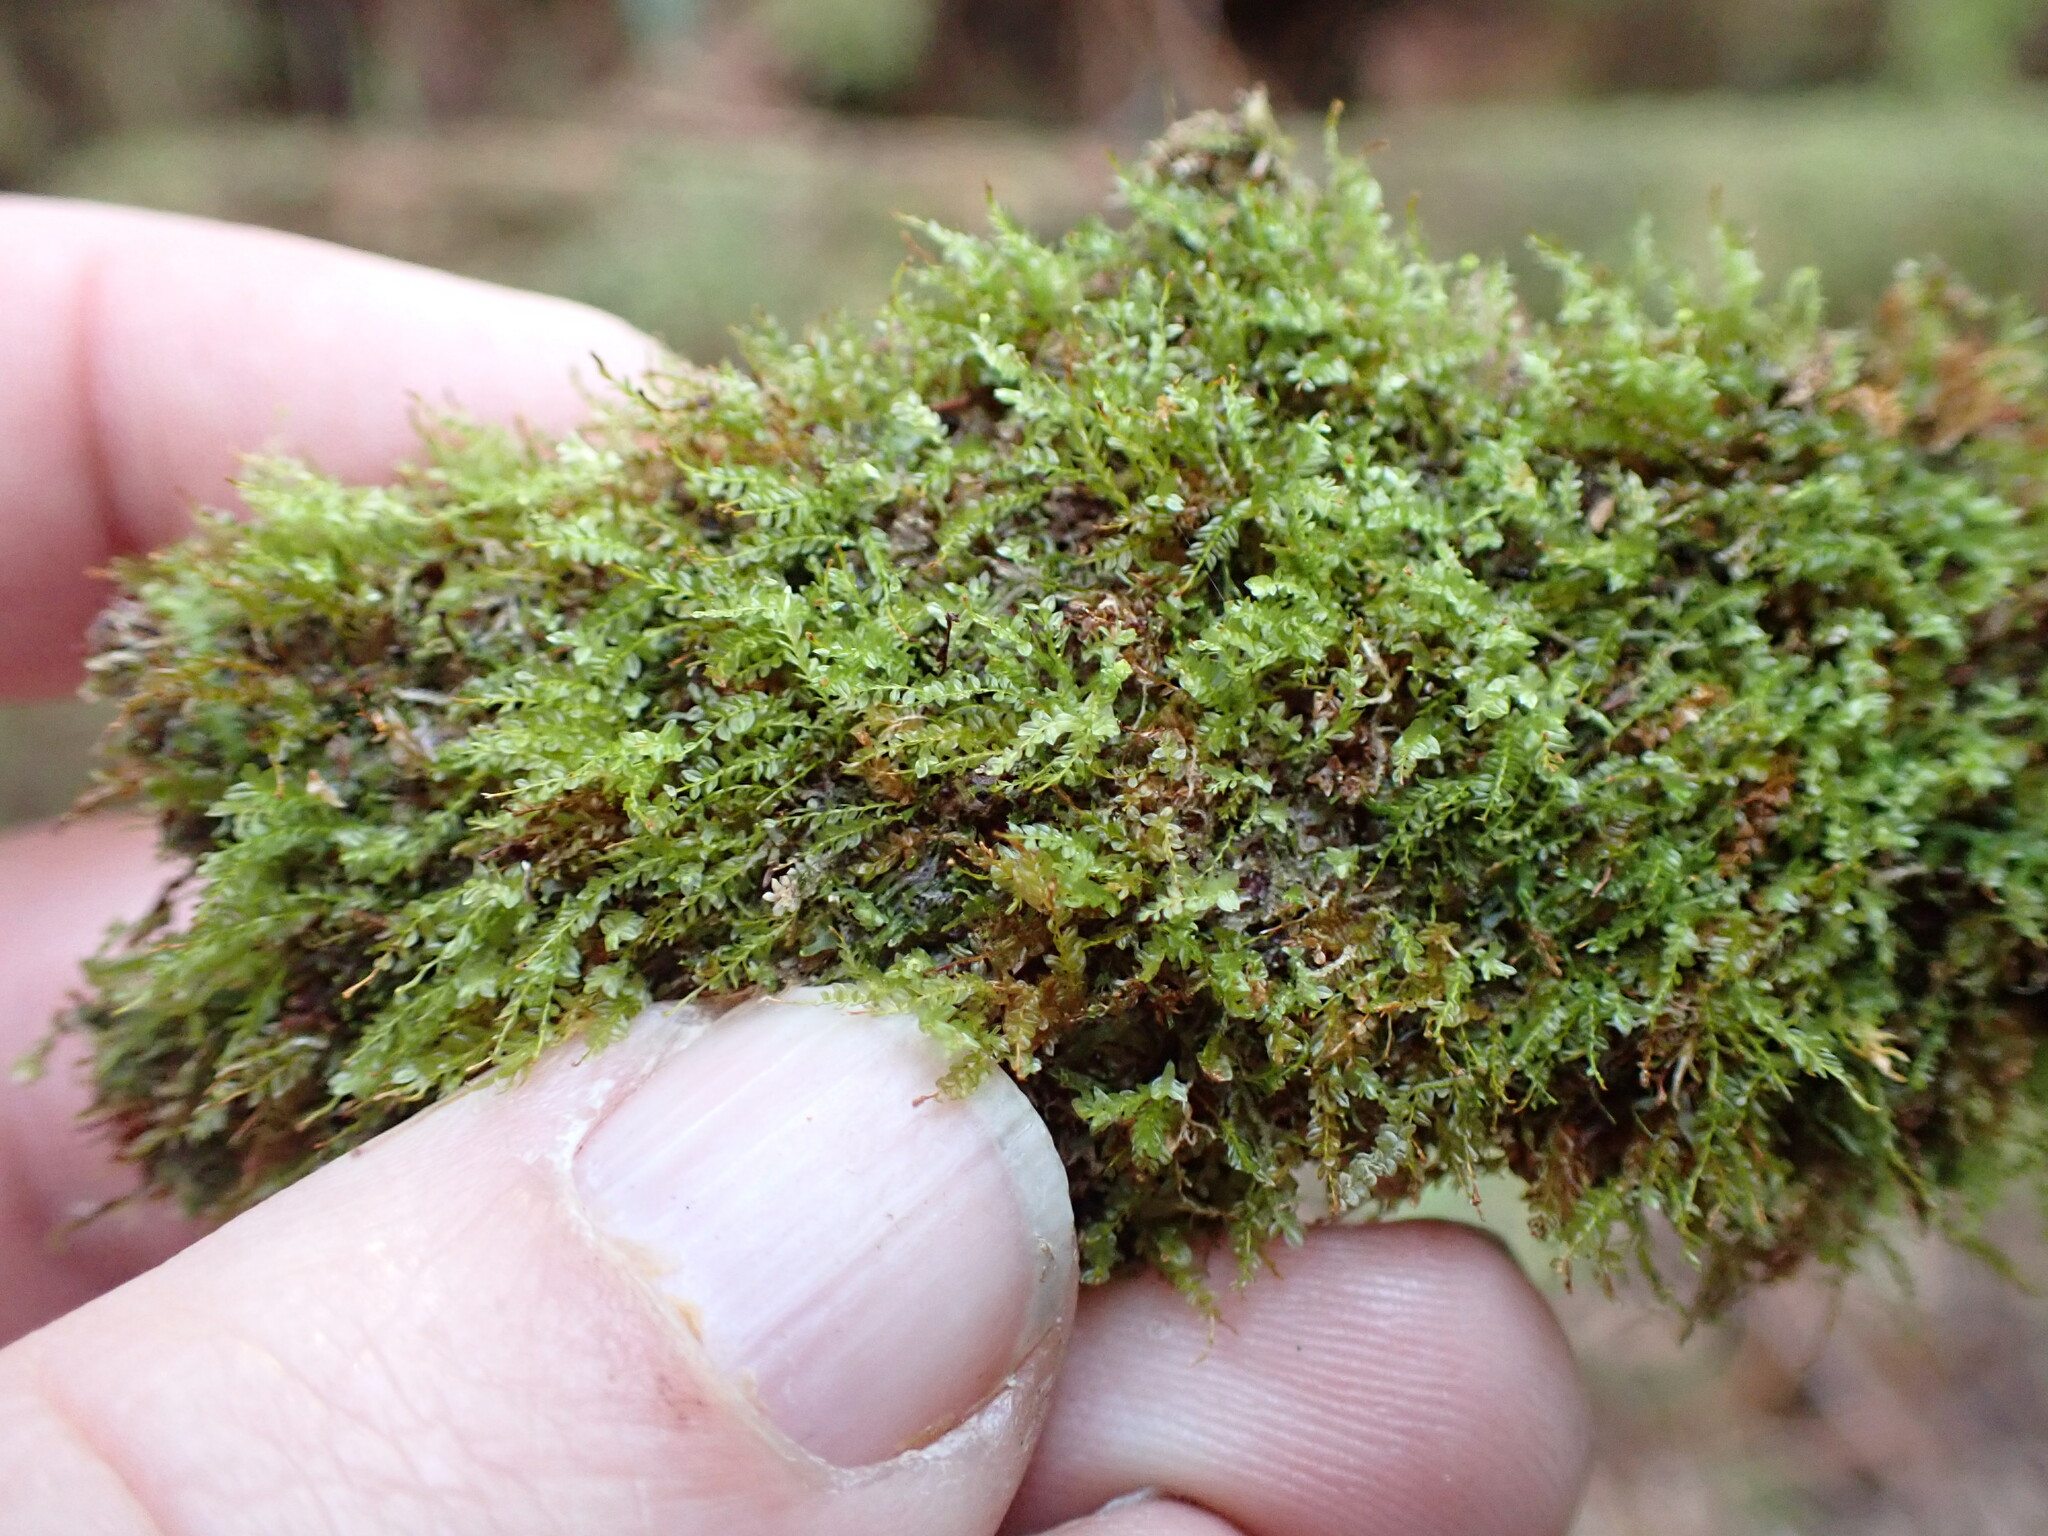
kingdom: Plantae
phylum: Bryophyta
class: Polytrichopsida
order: Tetraphidales
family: Tetraphidaceae
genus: Tetraphis
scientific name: Tetraphis pellucida
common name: Common four-toothed moss
